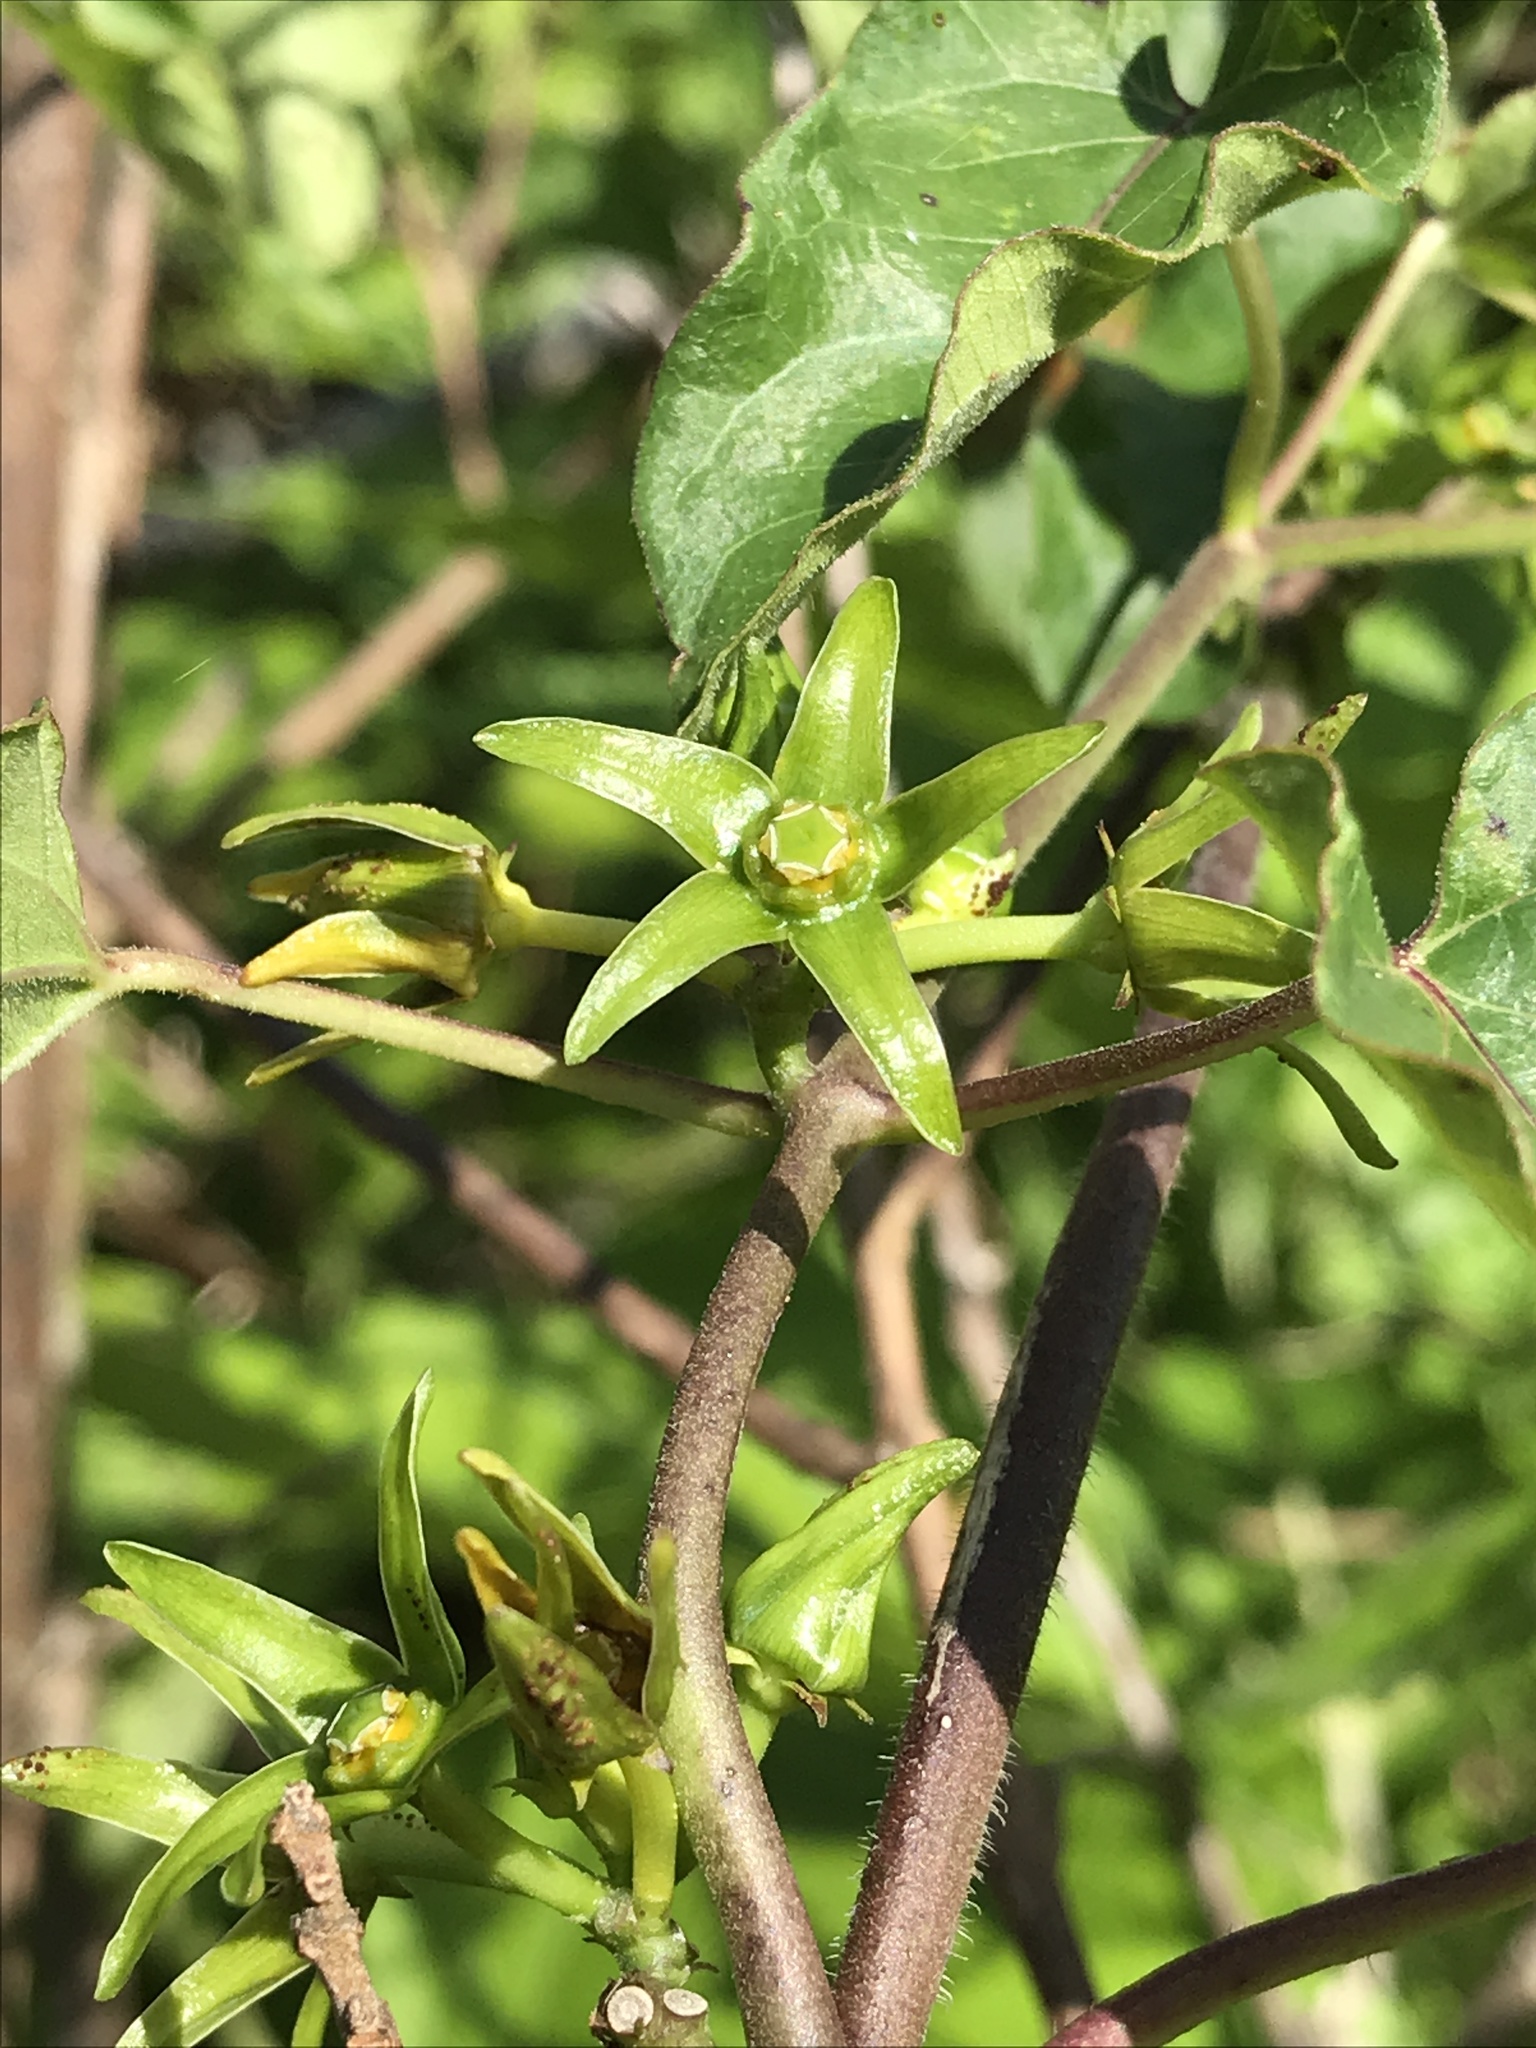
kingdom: Plantae
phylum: Tracheophyta
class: Magnoliopsida
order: Gentianales
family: Apocynaceae
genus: Gonolobus
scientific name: Gonolobus suberosus
